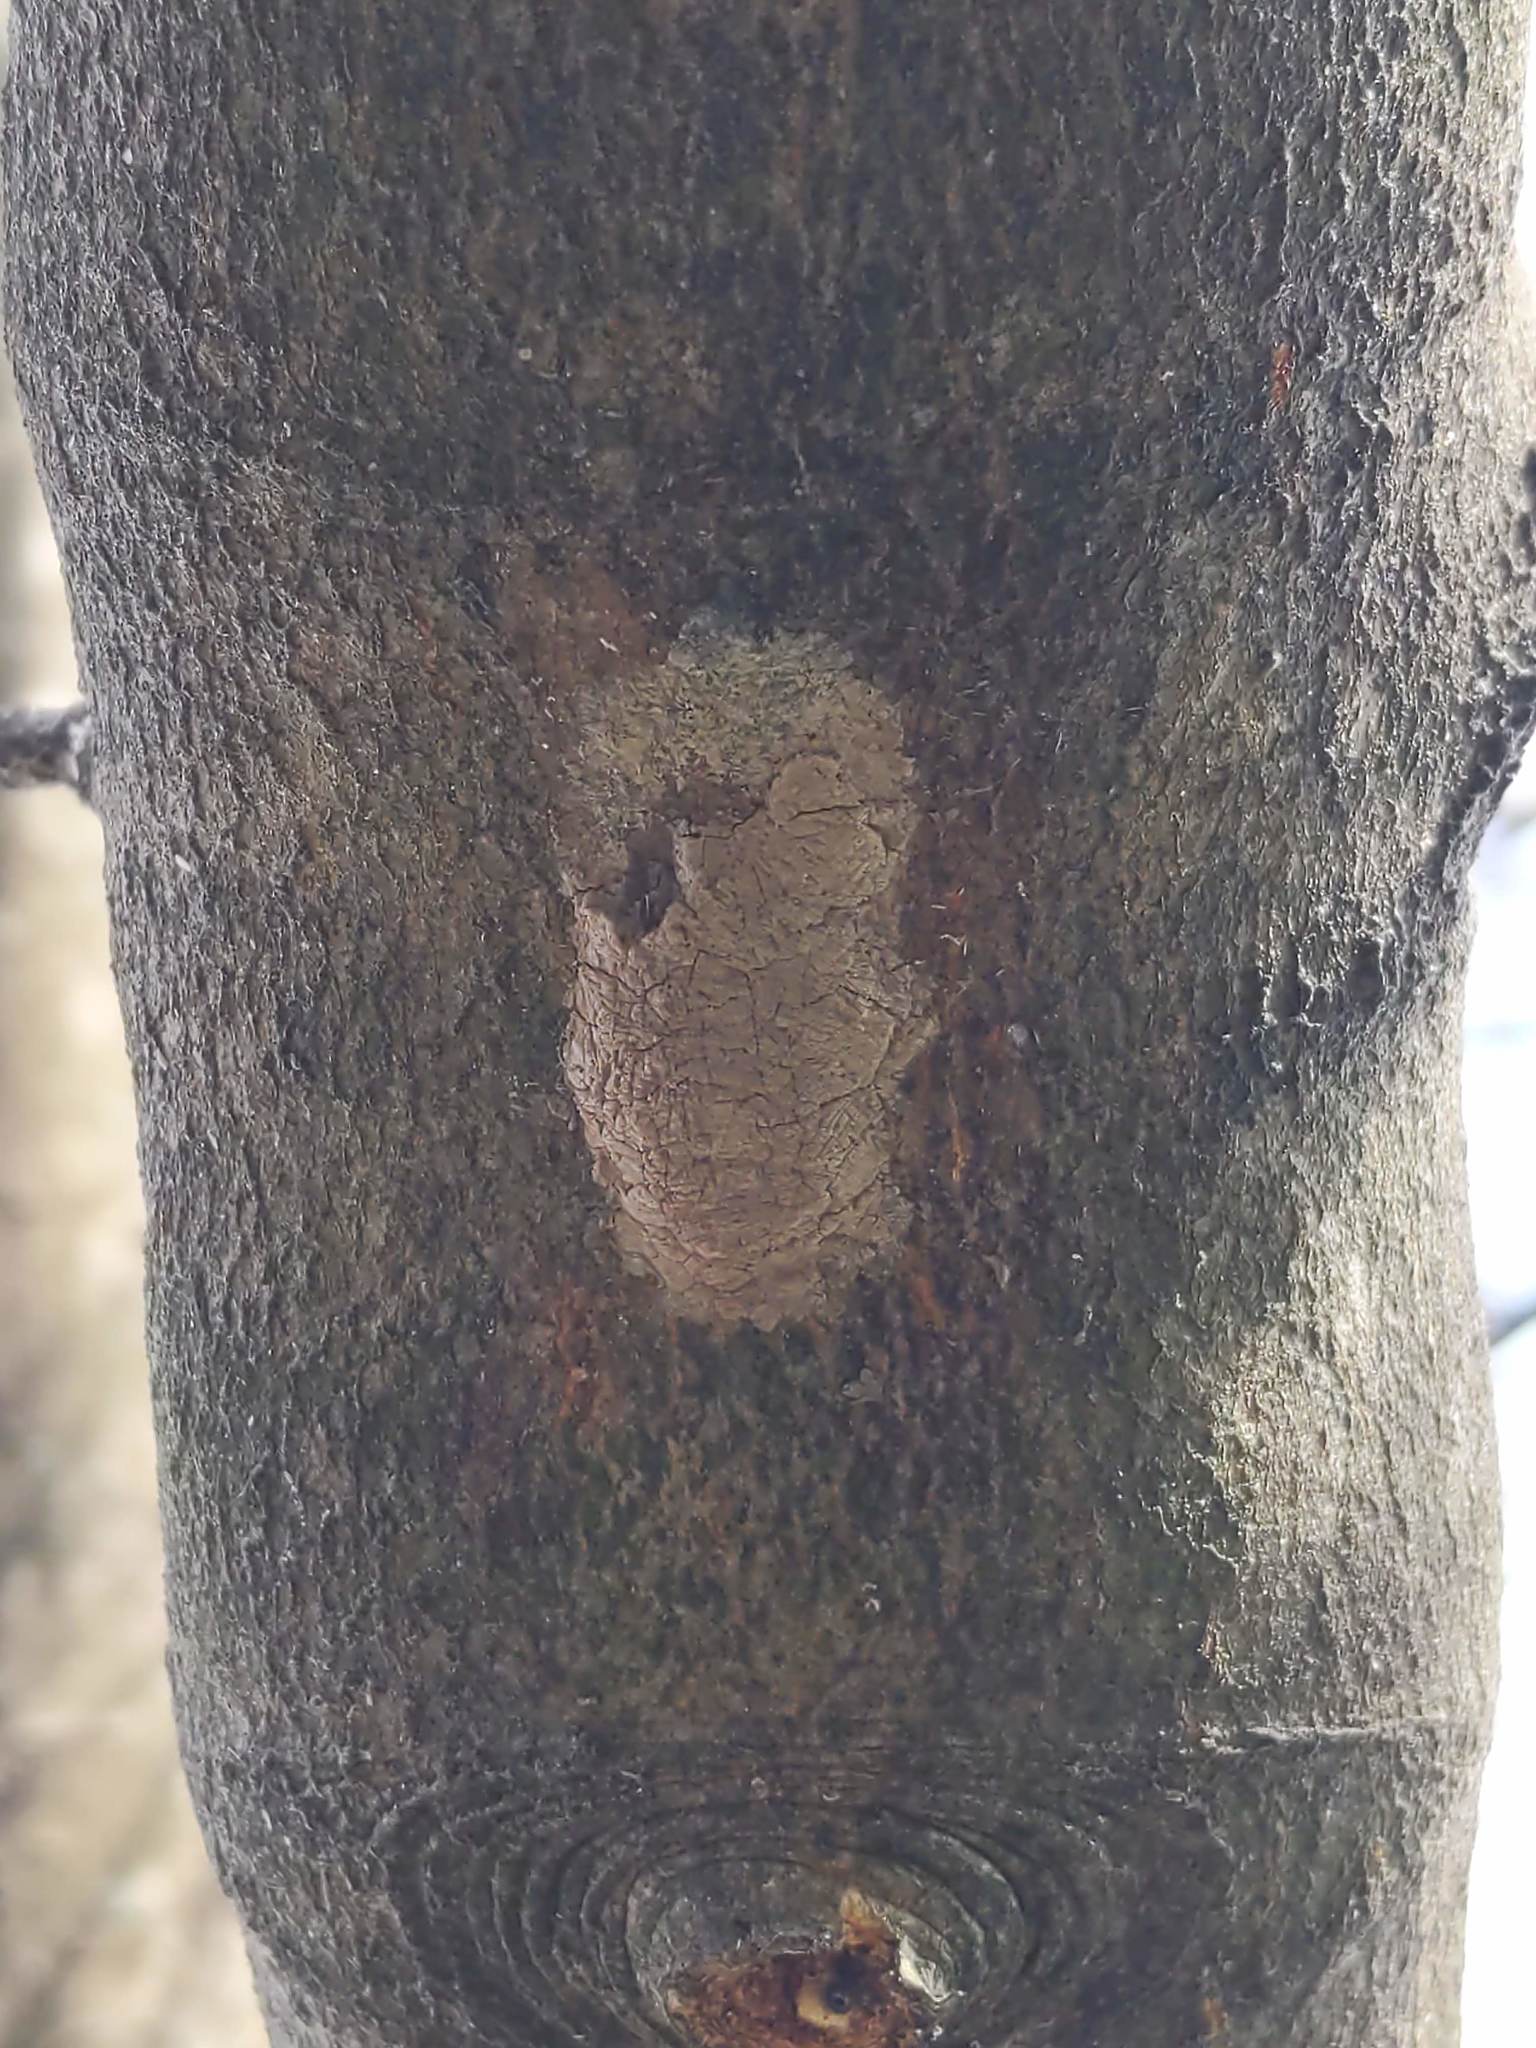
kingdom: Animalia
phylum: Arthropoda
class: Insecta
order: Hemiptera
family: Fulgoridae
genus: Lycorma
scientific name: Lycorma delicatula
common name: Spotted lanternfly
